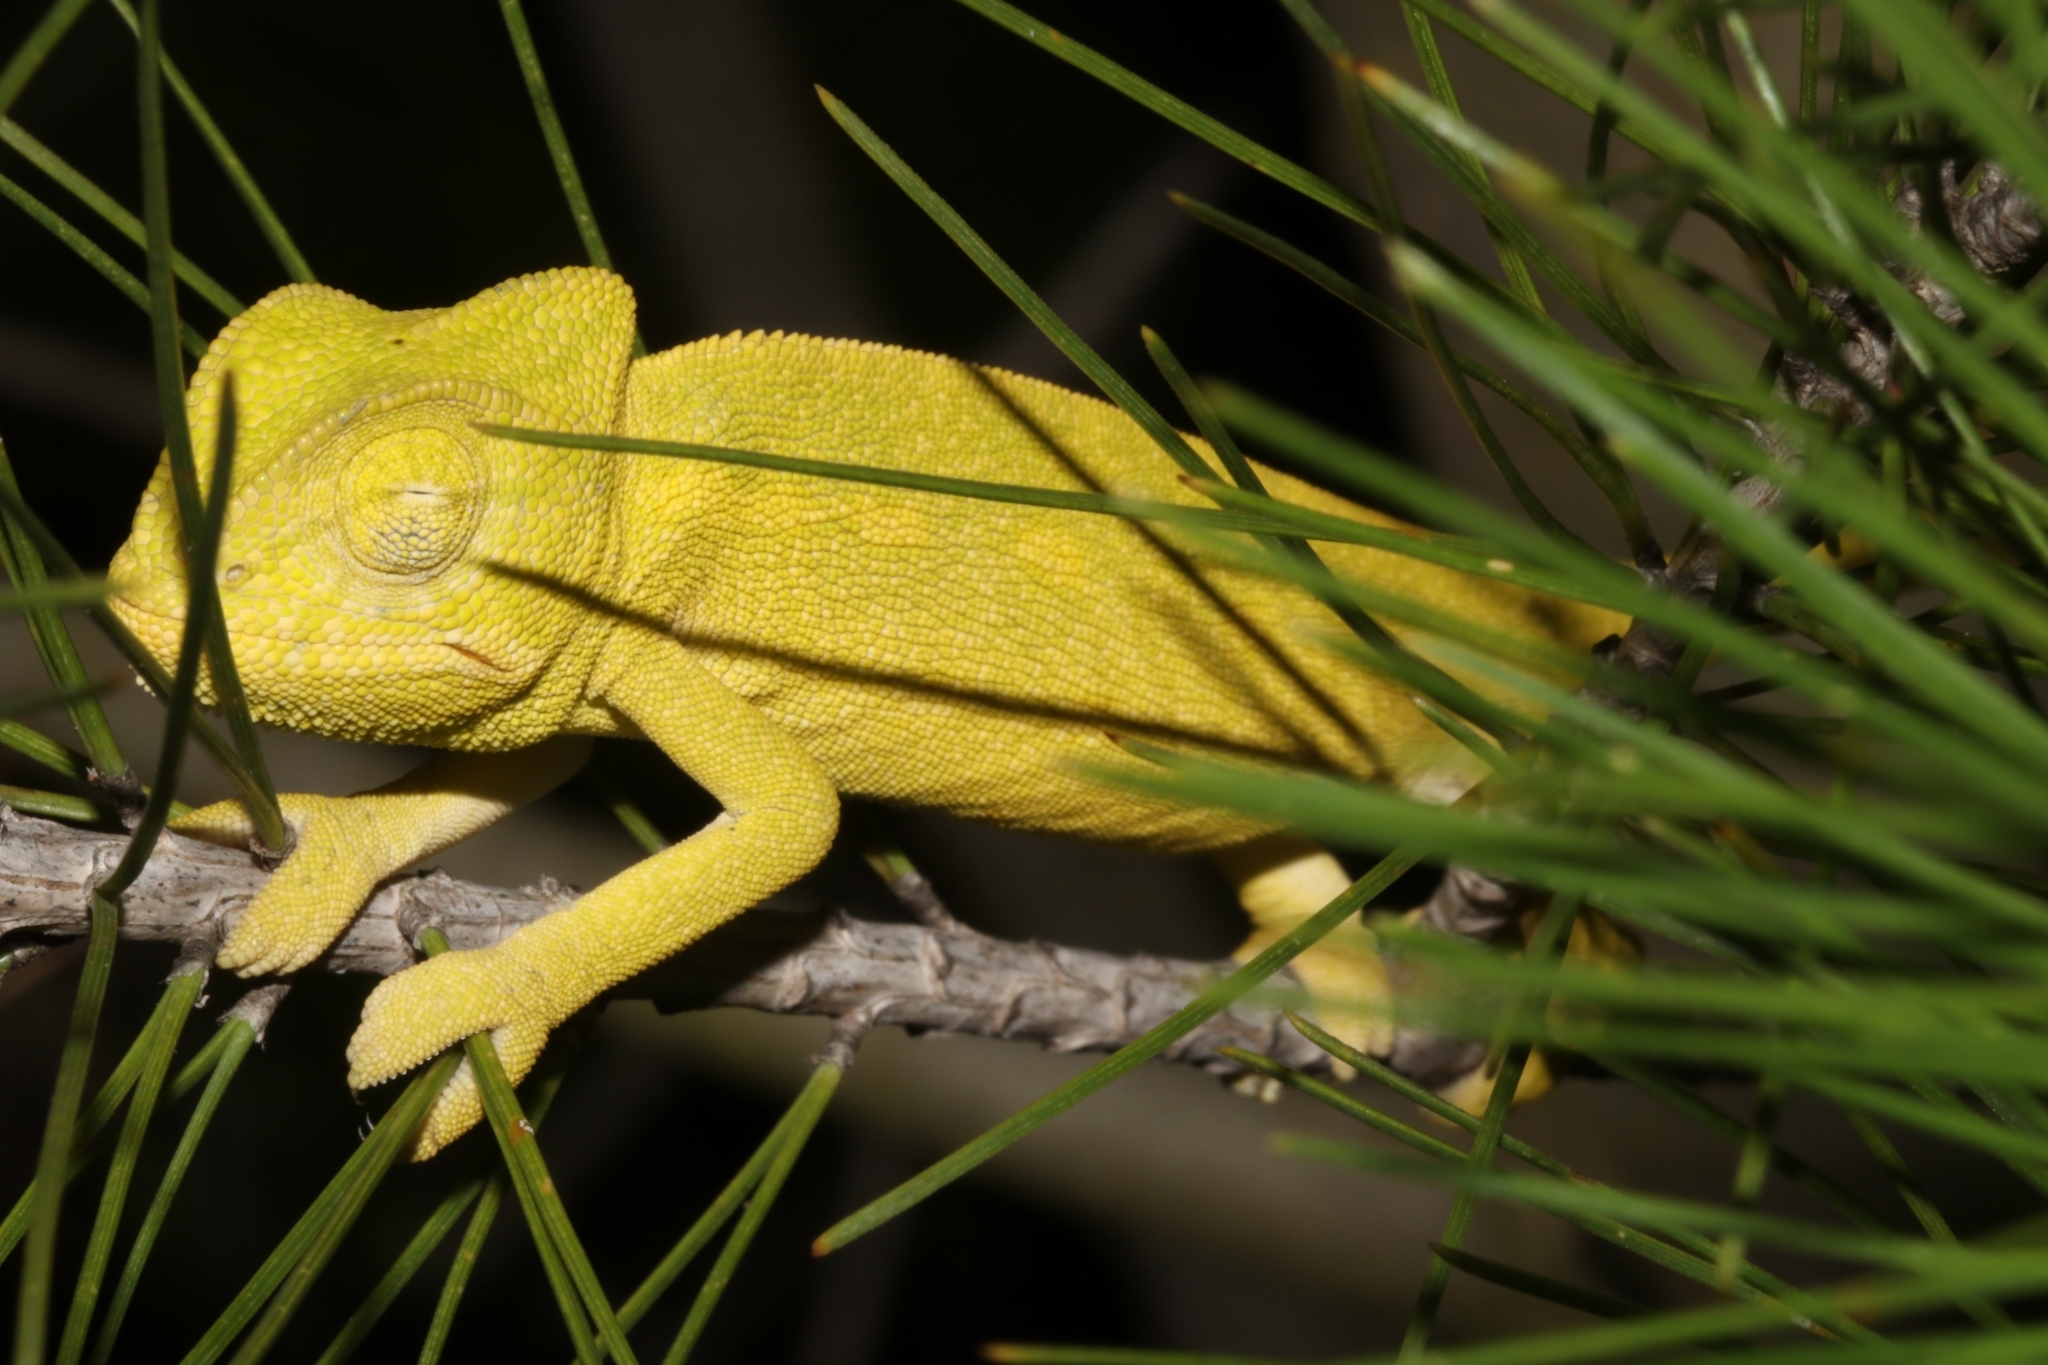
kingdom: Animalia
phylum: Chordata
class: Squamata
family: Chamaeleonidae
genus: Chamaeleo
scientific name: Chamaeleo africanus
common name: African chameleon
